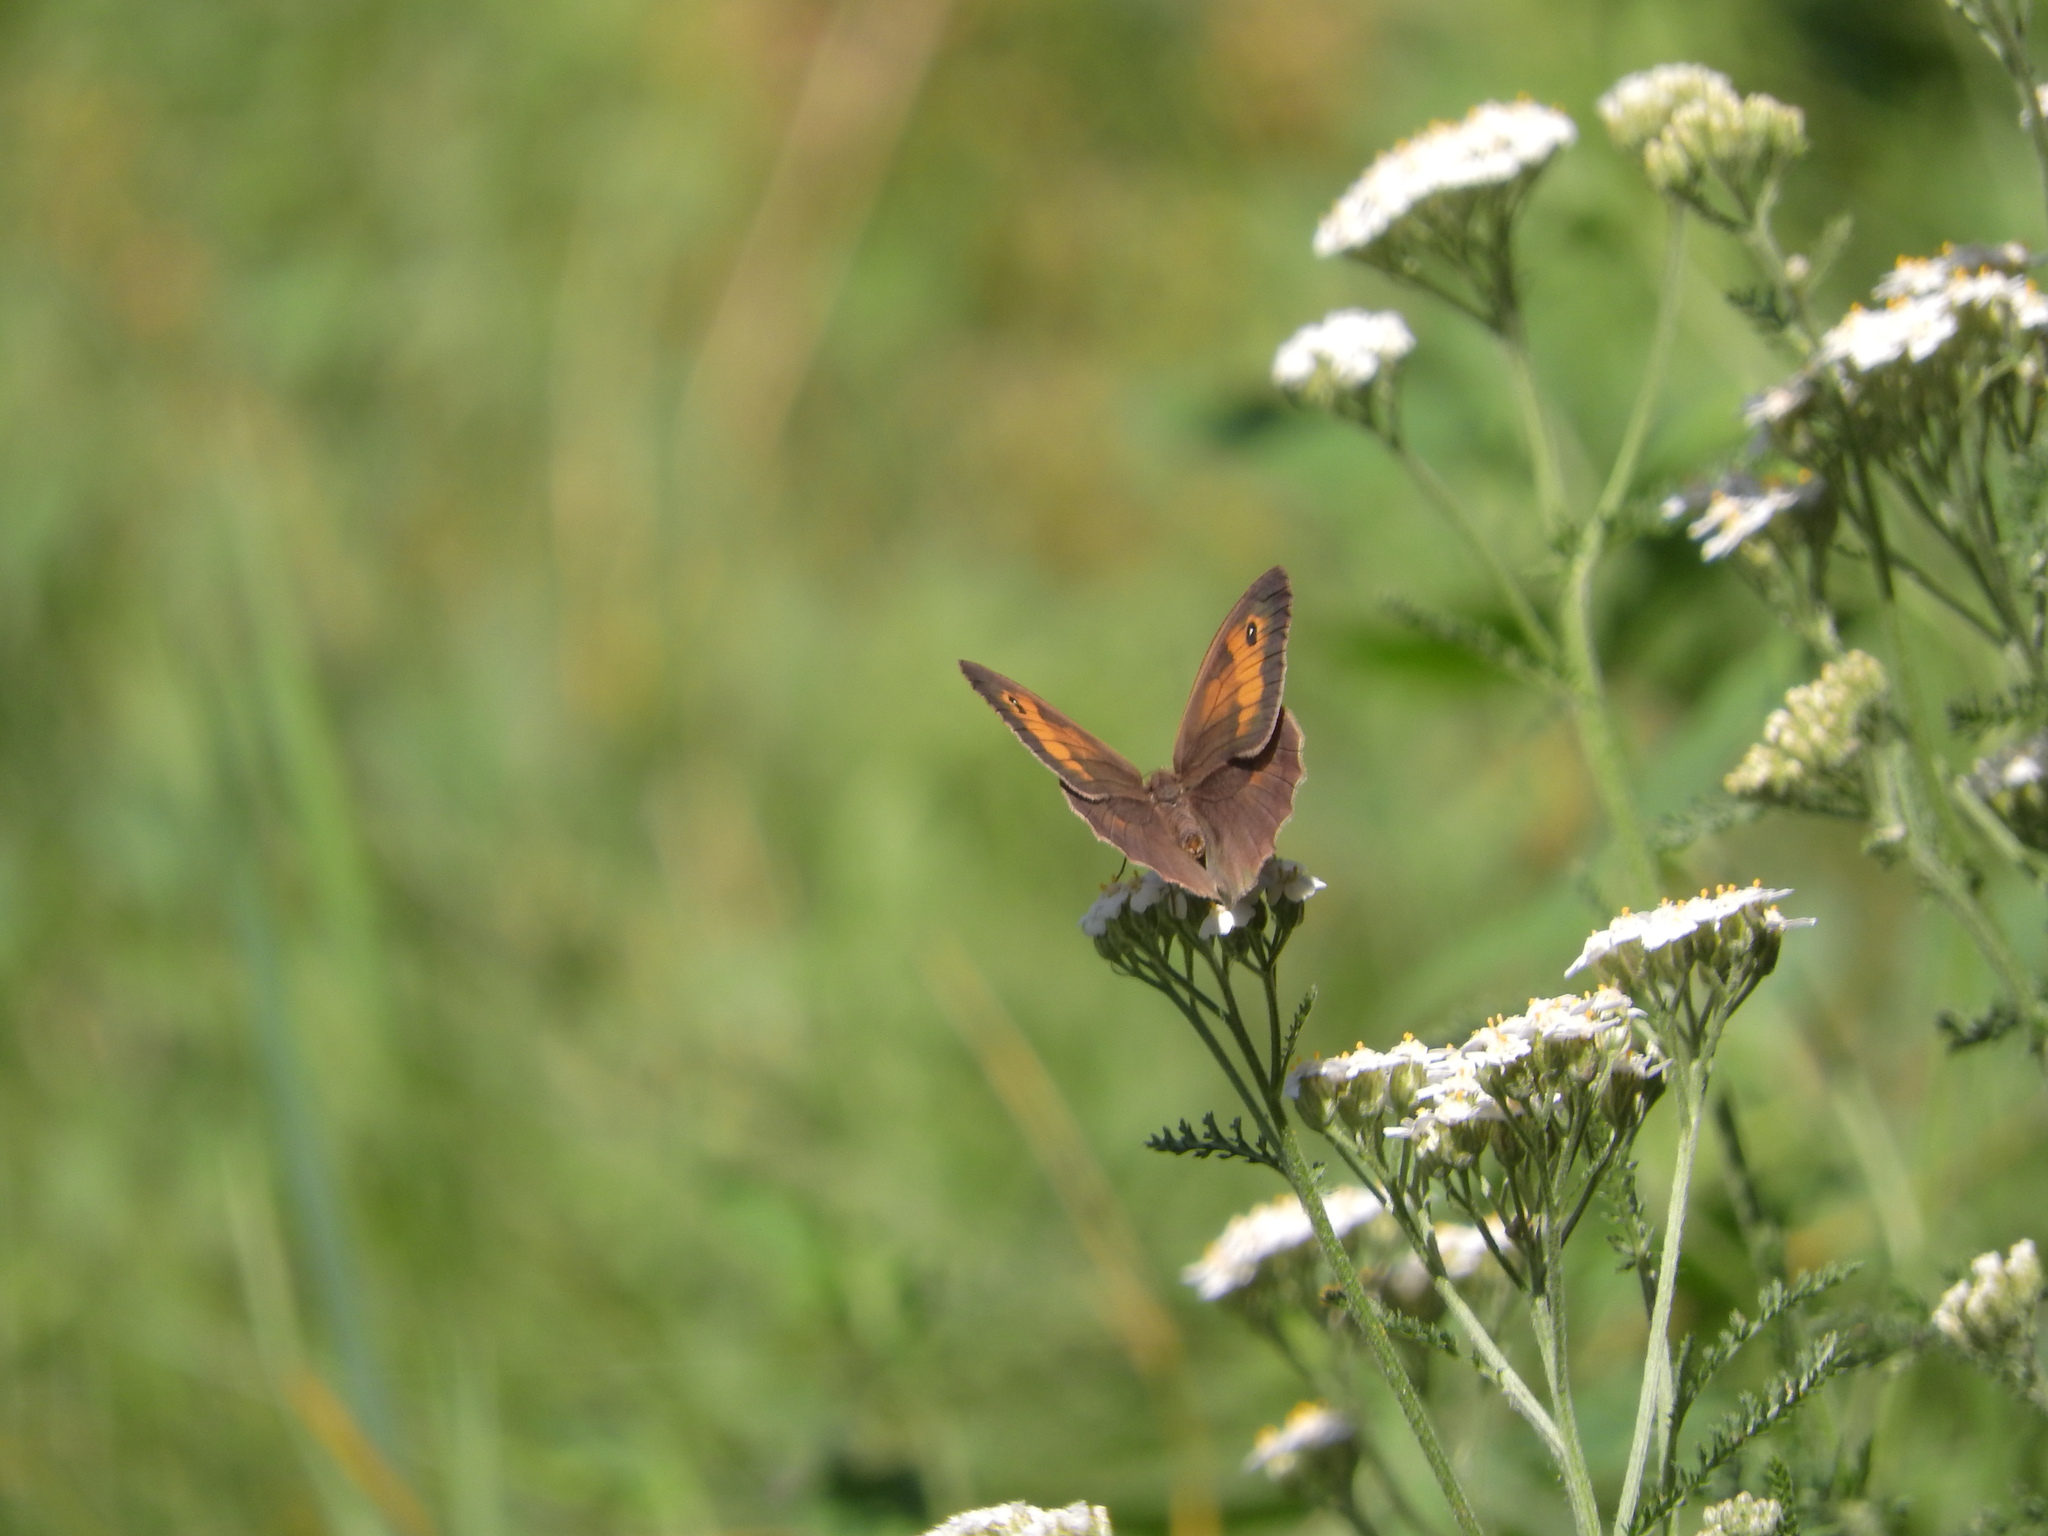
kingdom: Animalia
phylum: Arthropoda
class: Insecta
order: Lepidoptera
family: Nymphalidae
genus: Maniola
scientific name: Maniola jurtina
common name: Meadow brown
